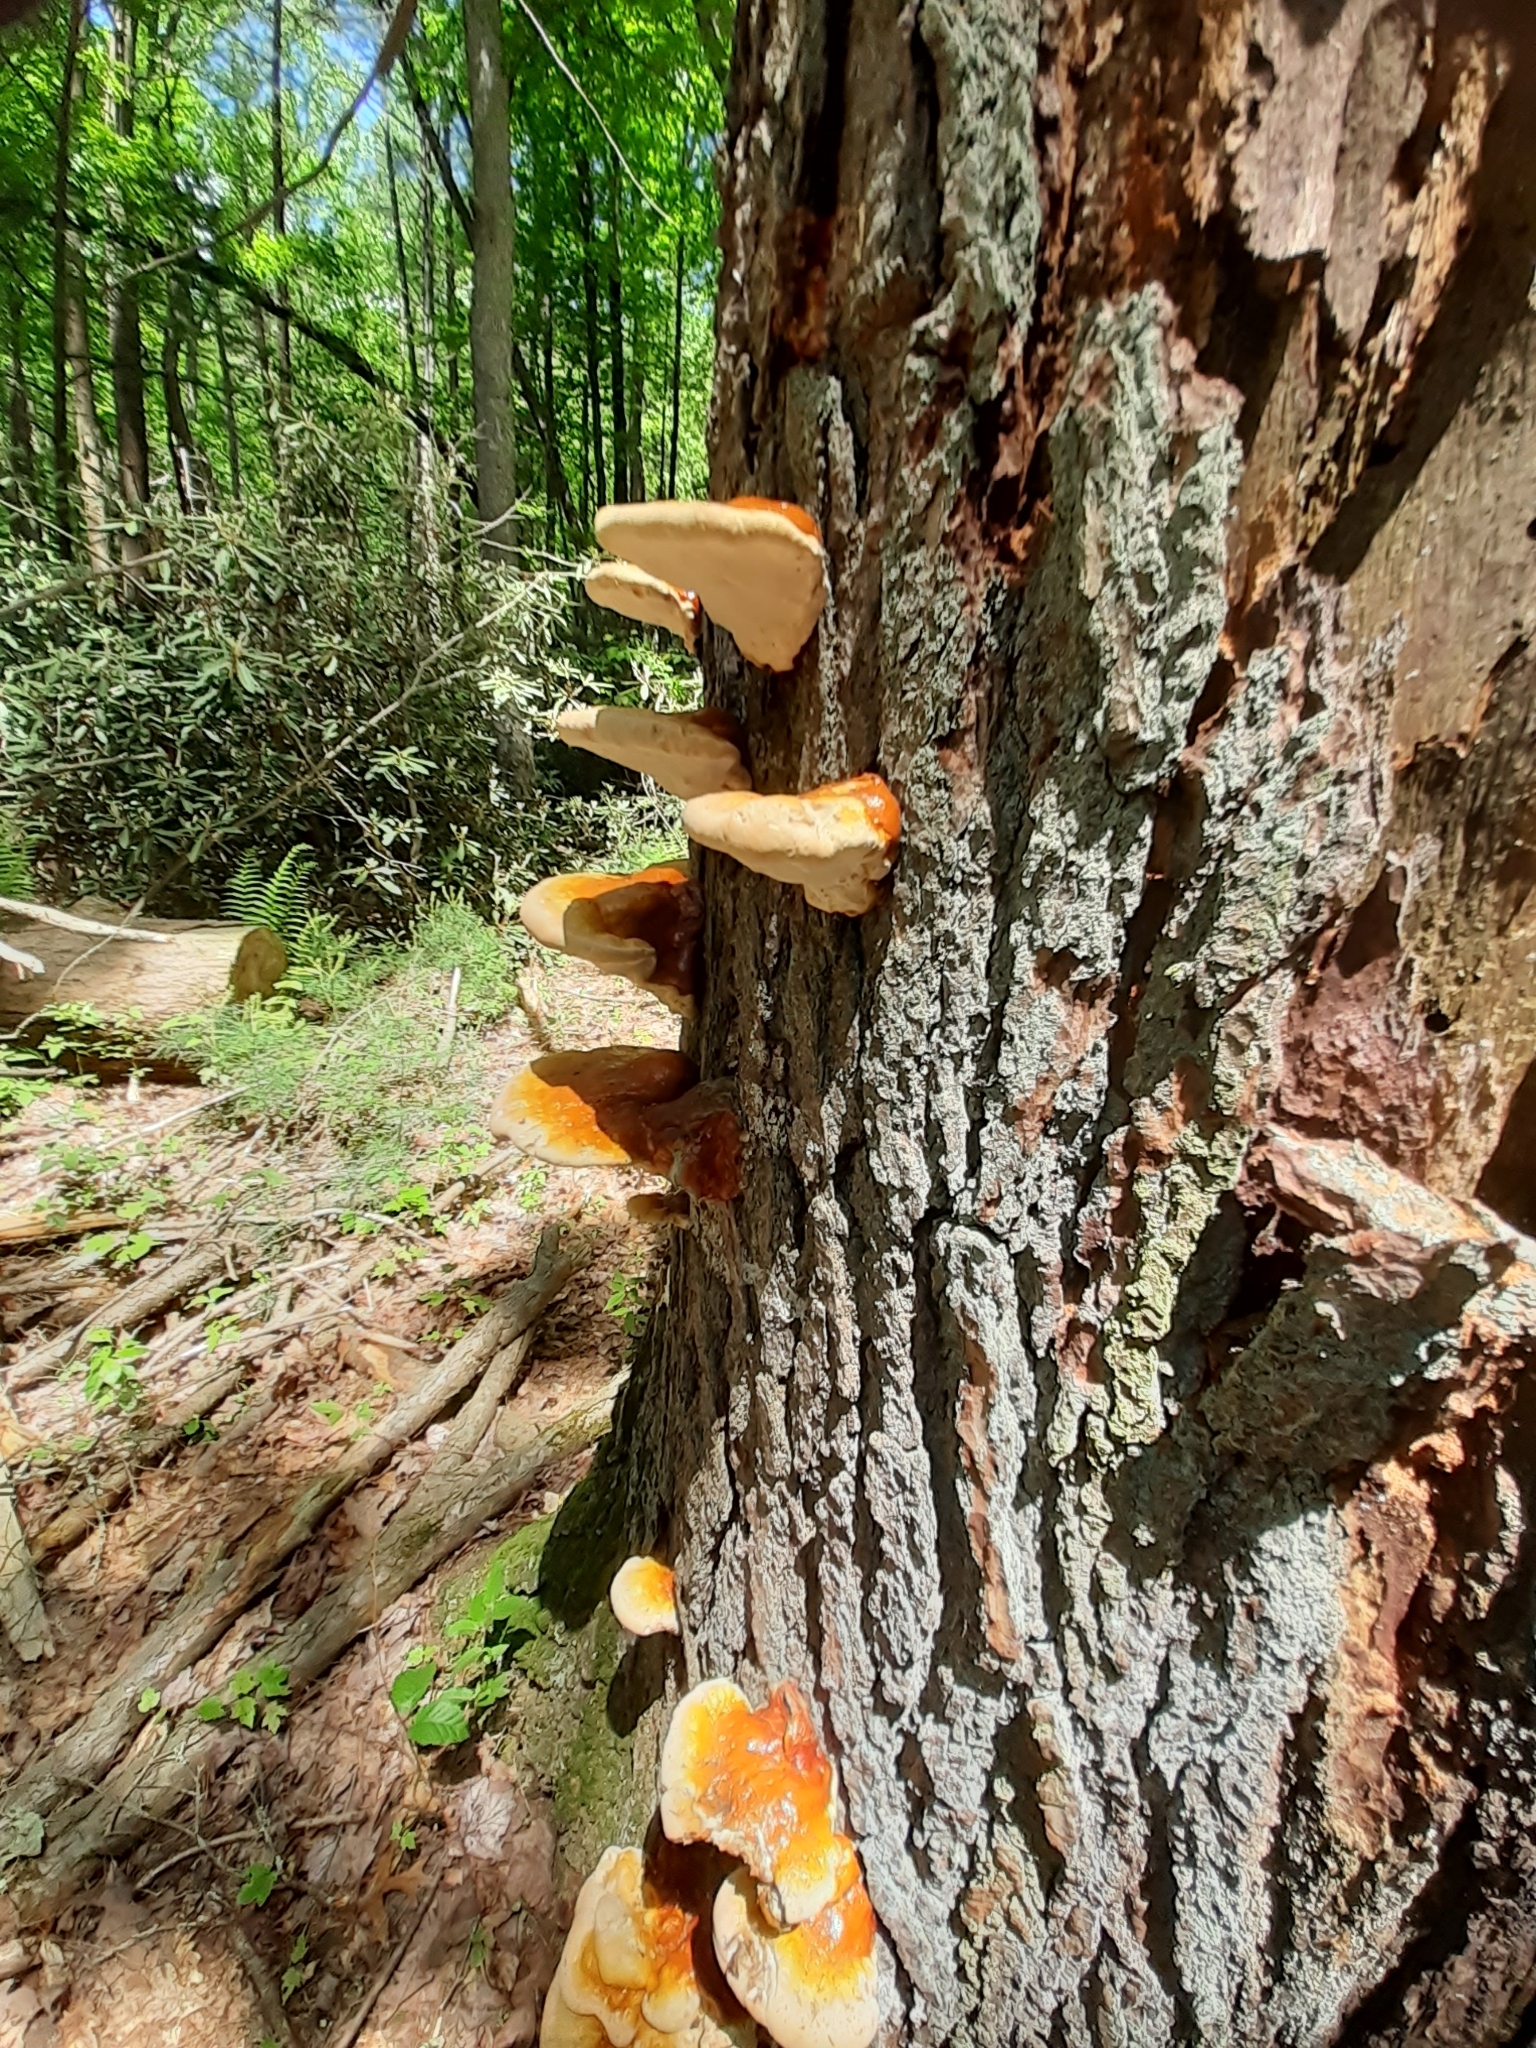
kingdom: Fungi
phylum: Basidiomycota
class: Agaricomycetes
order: Polyporales
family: Polyporaceae
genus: Ganoderma
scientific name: Ganoderma tsugae
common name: Hemlock varnish shelf
